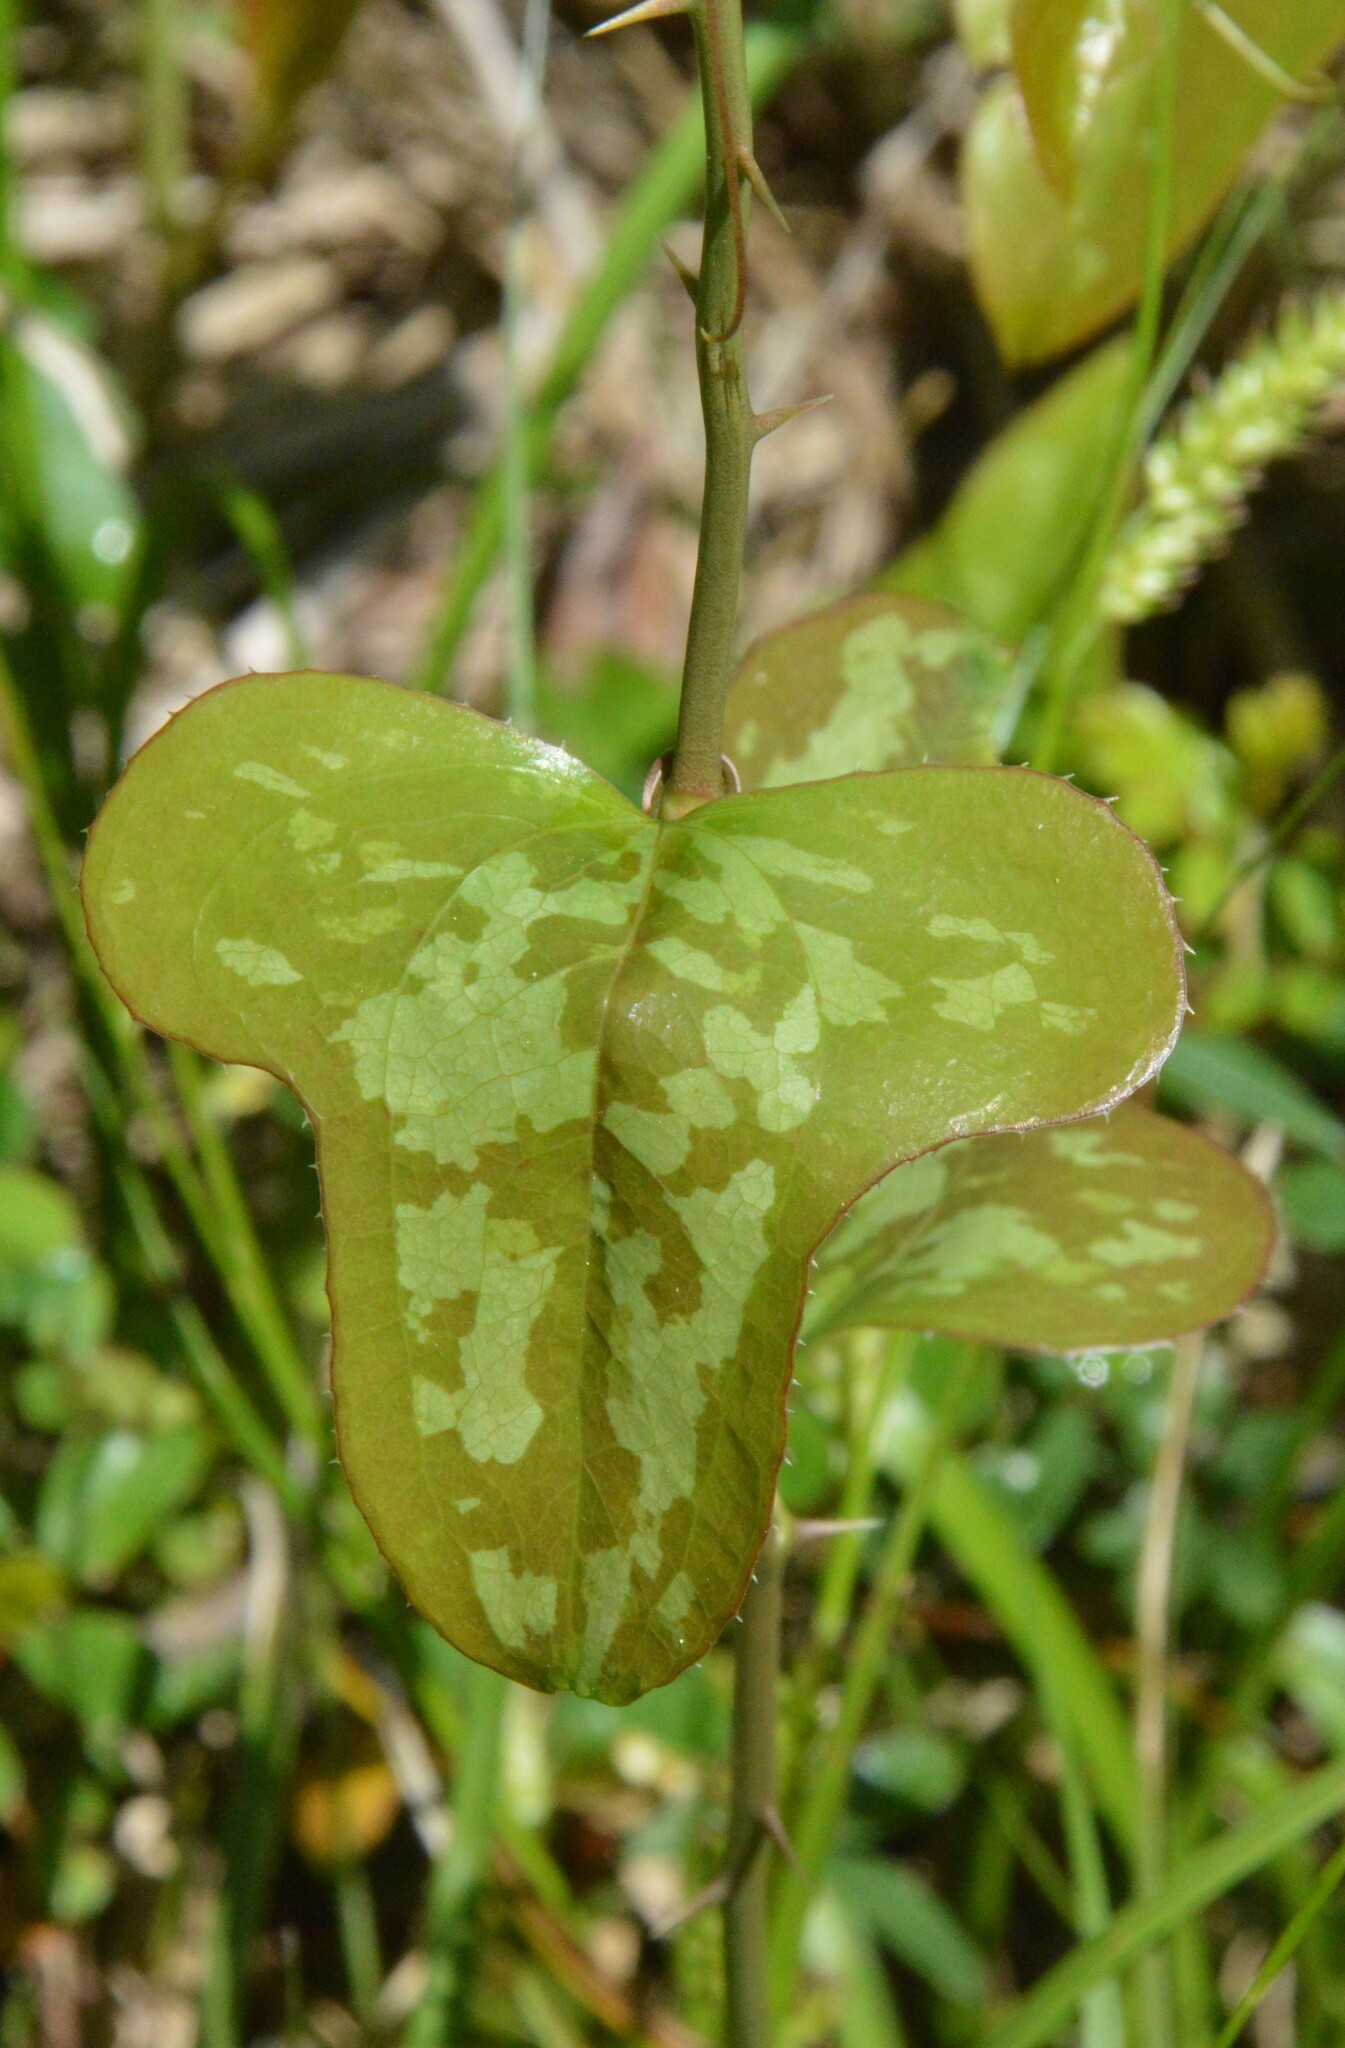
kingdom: Plantae
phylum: Tracheophyta
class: Liliopsida
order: Liliales
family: Smilacaceae
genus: Smilax
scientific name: Smilax bona-nox
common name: Catbrier
